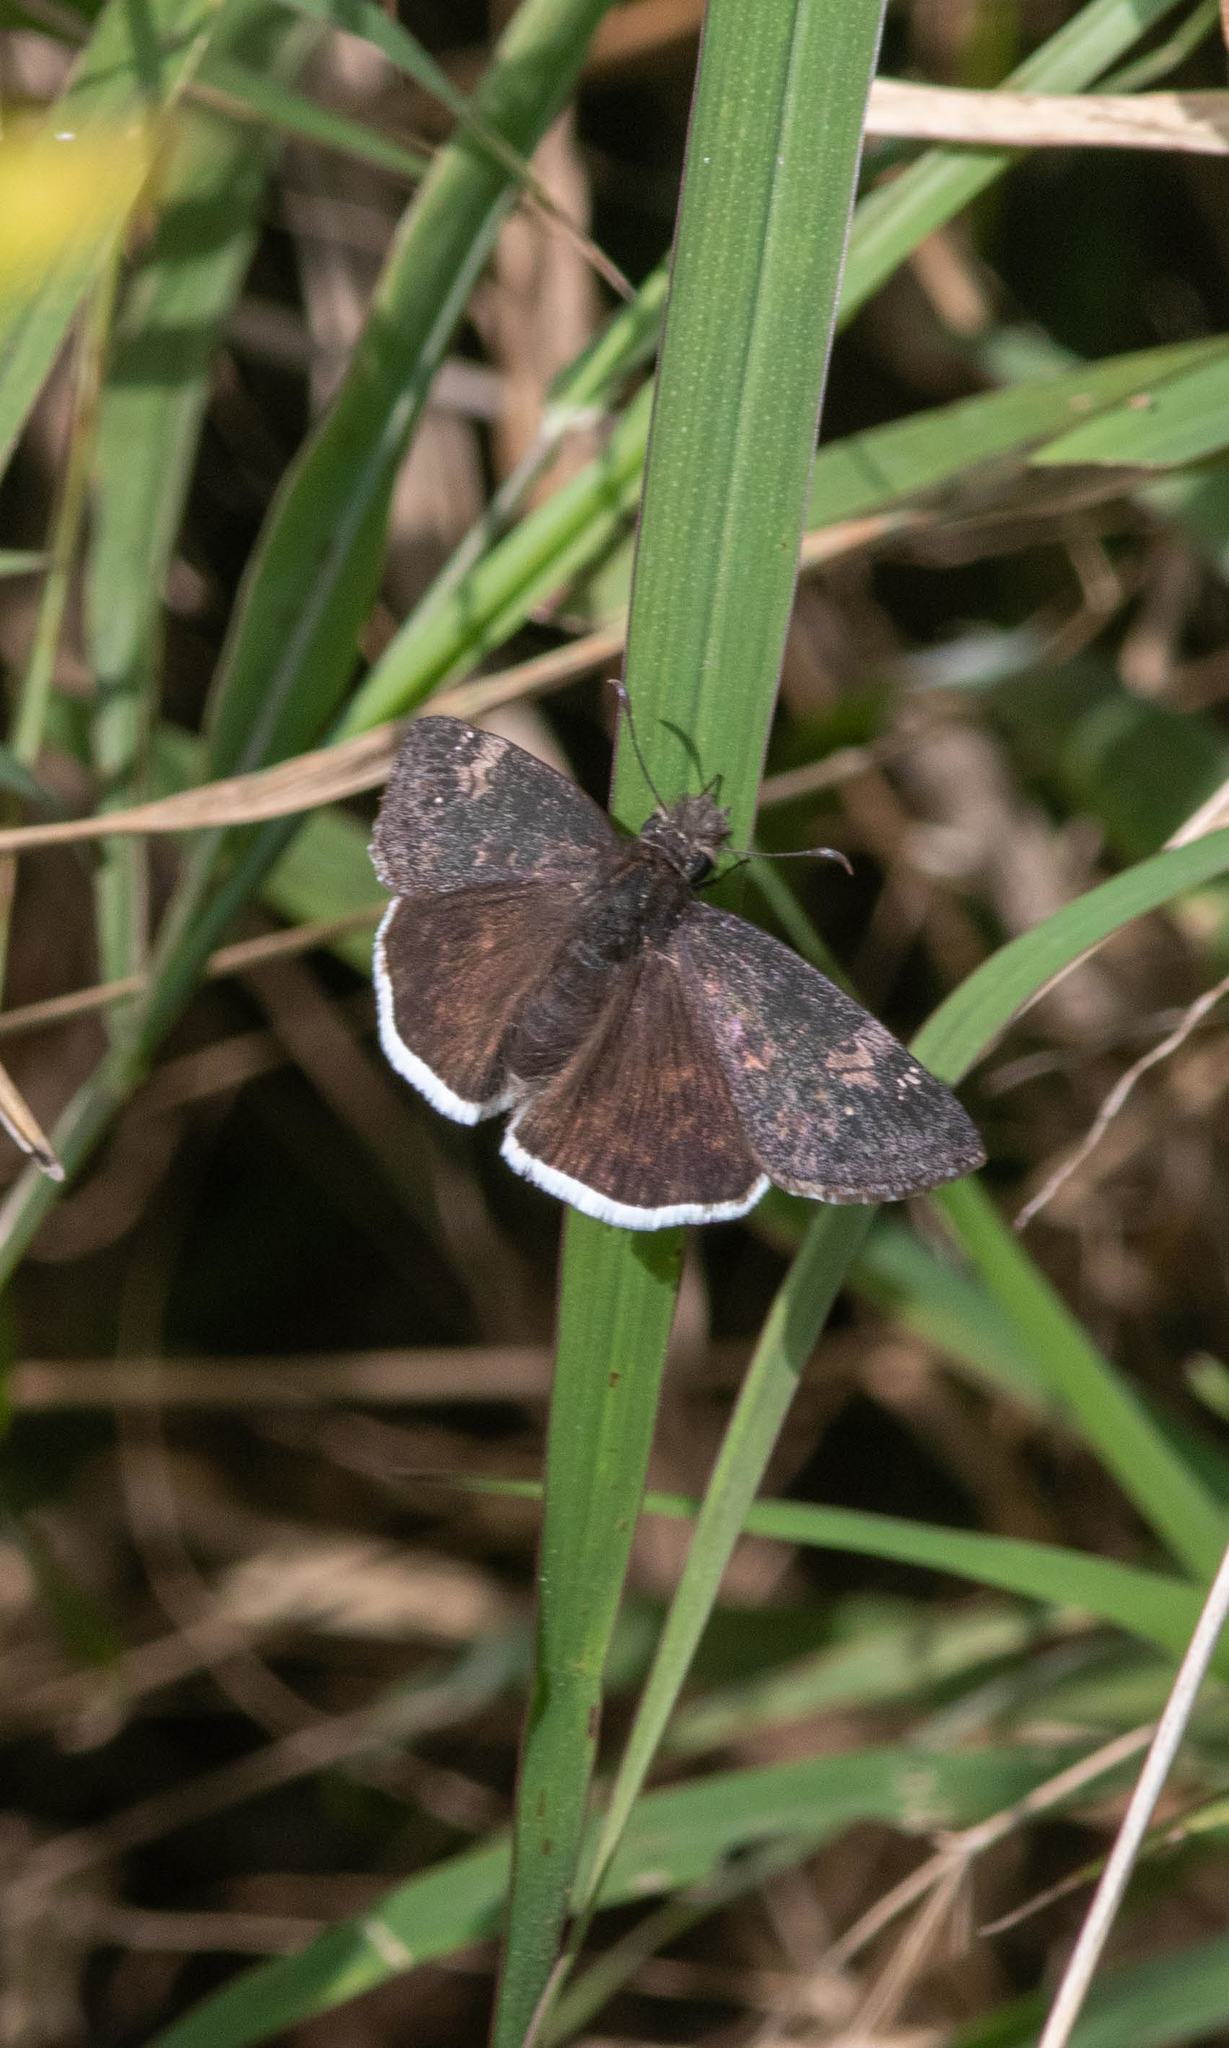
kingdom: Animalia
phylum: Arthropoda
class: Insecta
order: Lepidoptera
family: Hesperiidae
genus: Erynnis
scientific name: Erynnis funeralis
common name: Funereal duskywing
